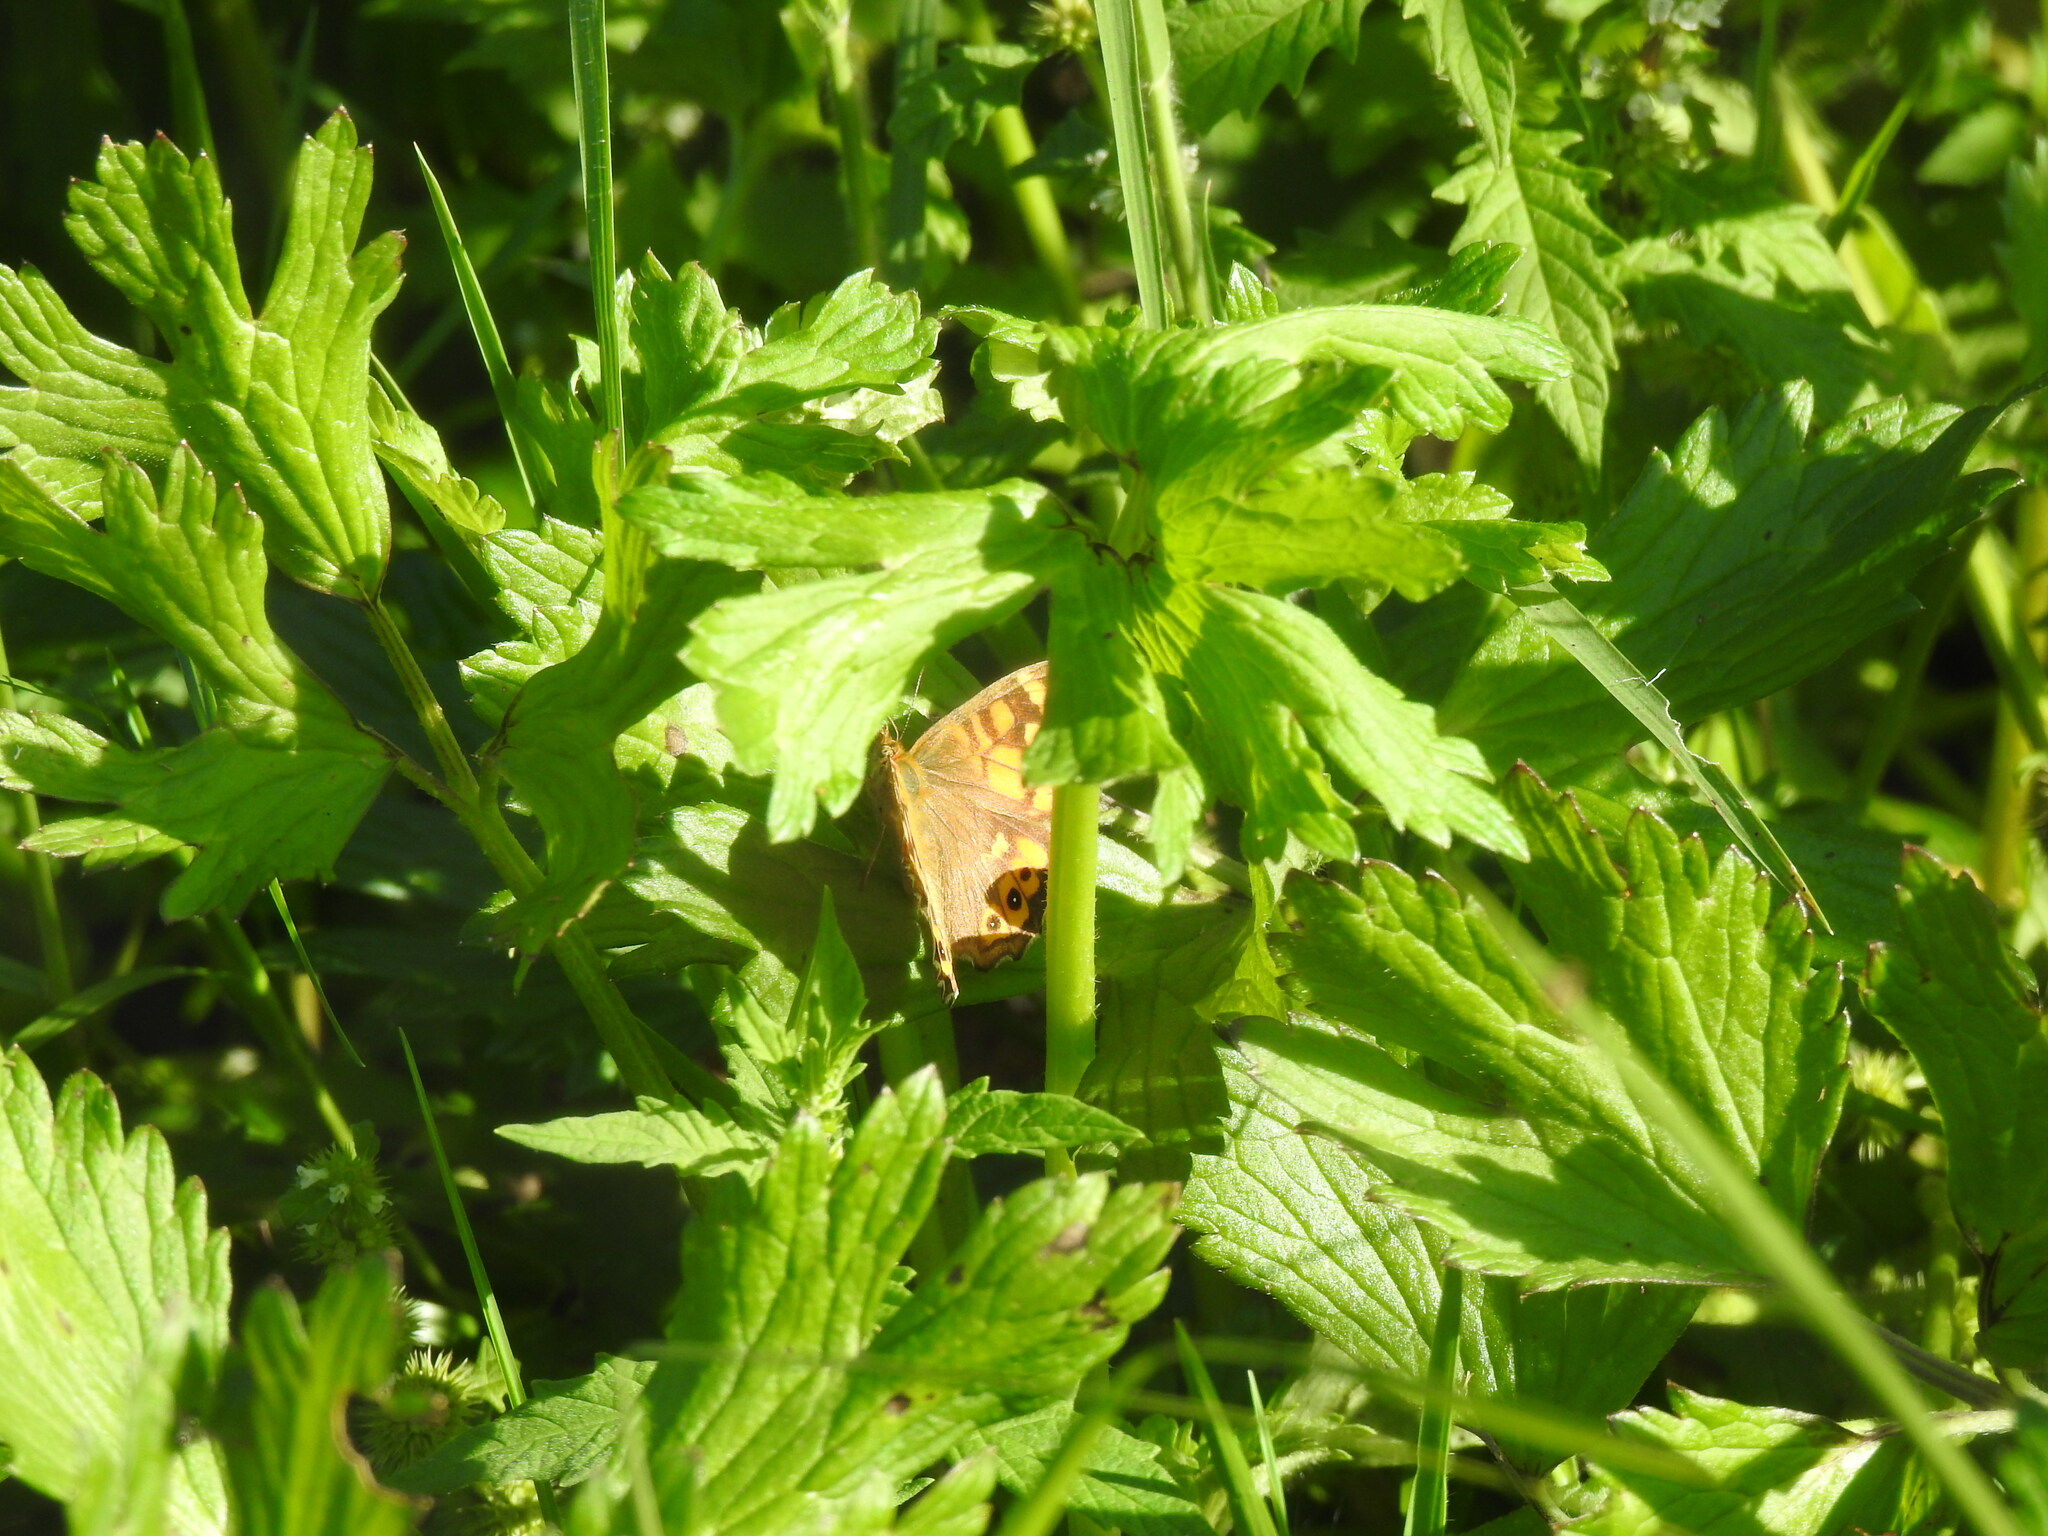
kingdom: Animalia
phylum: Arthropoda
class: Insecta
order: Lepidoptera
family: Nymphalidae
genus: Pararge
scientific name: Pararge aegeria
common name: Speckled wood
